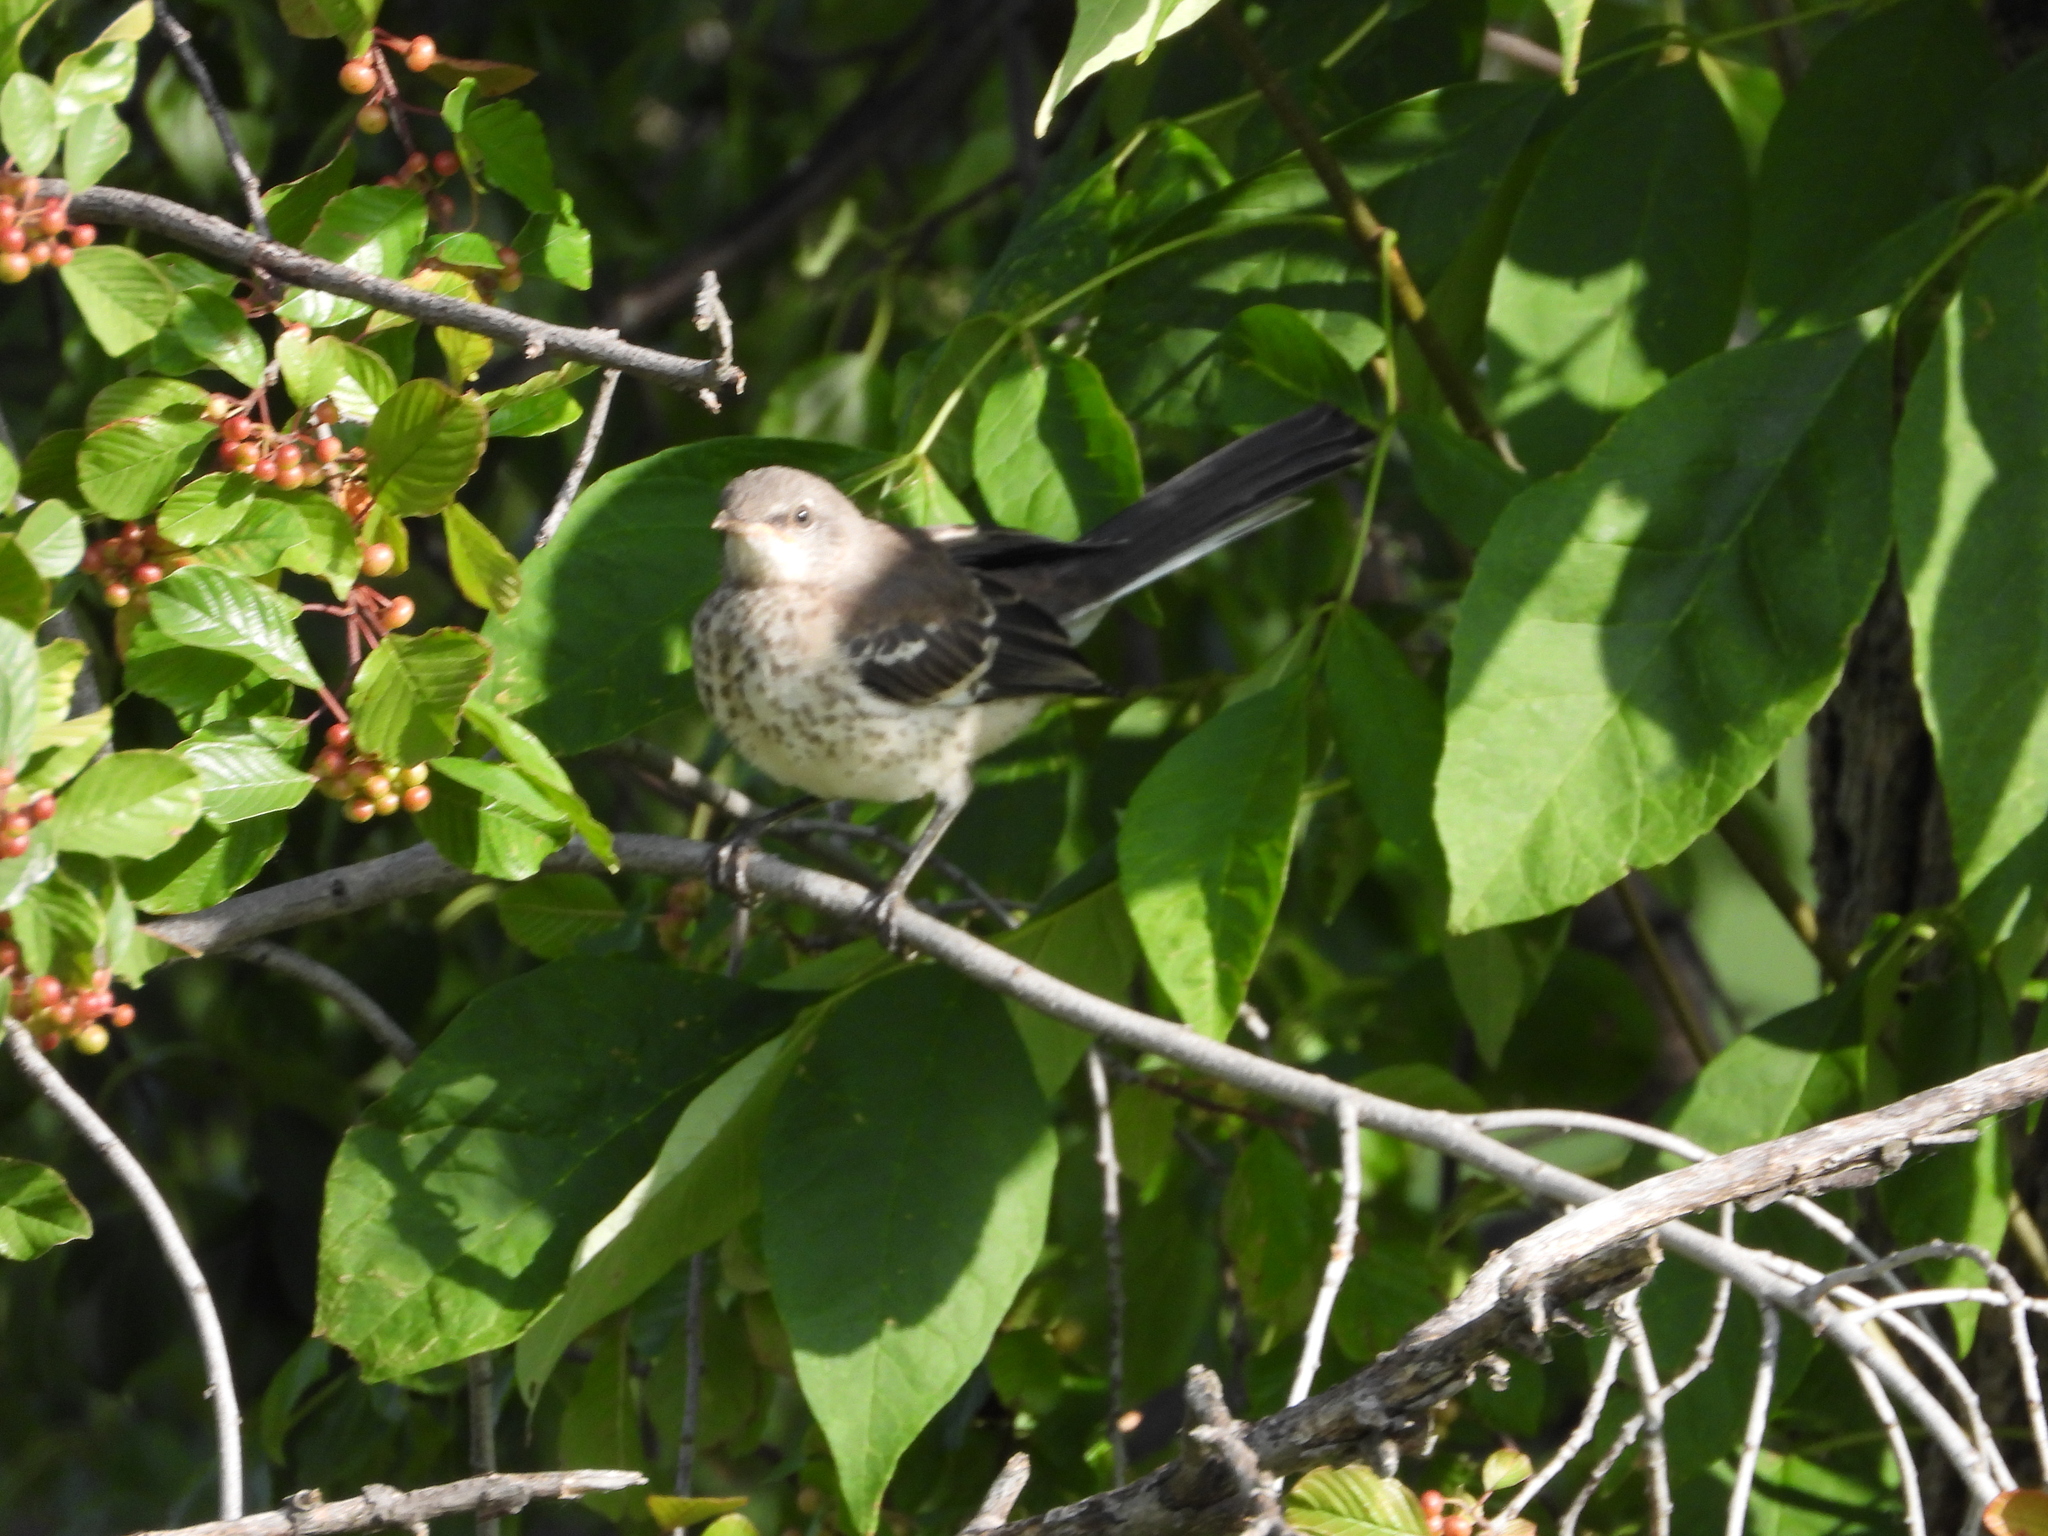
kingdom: Animalia
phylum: Chordata
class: Aves
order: Passeriformes
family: Mimidae
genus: Mimus
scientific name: Mimus polyglottos
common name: Northern mockingbird
